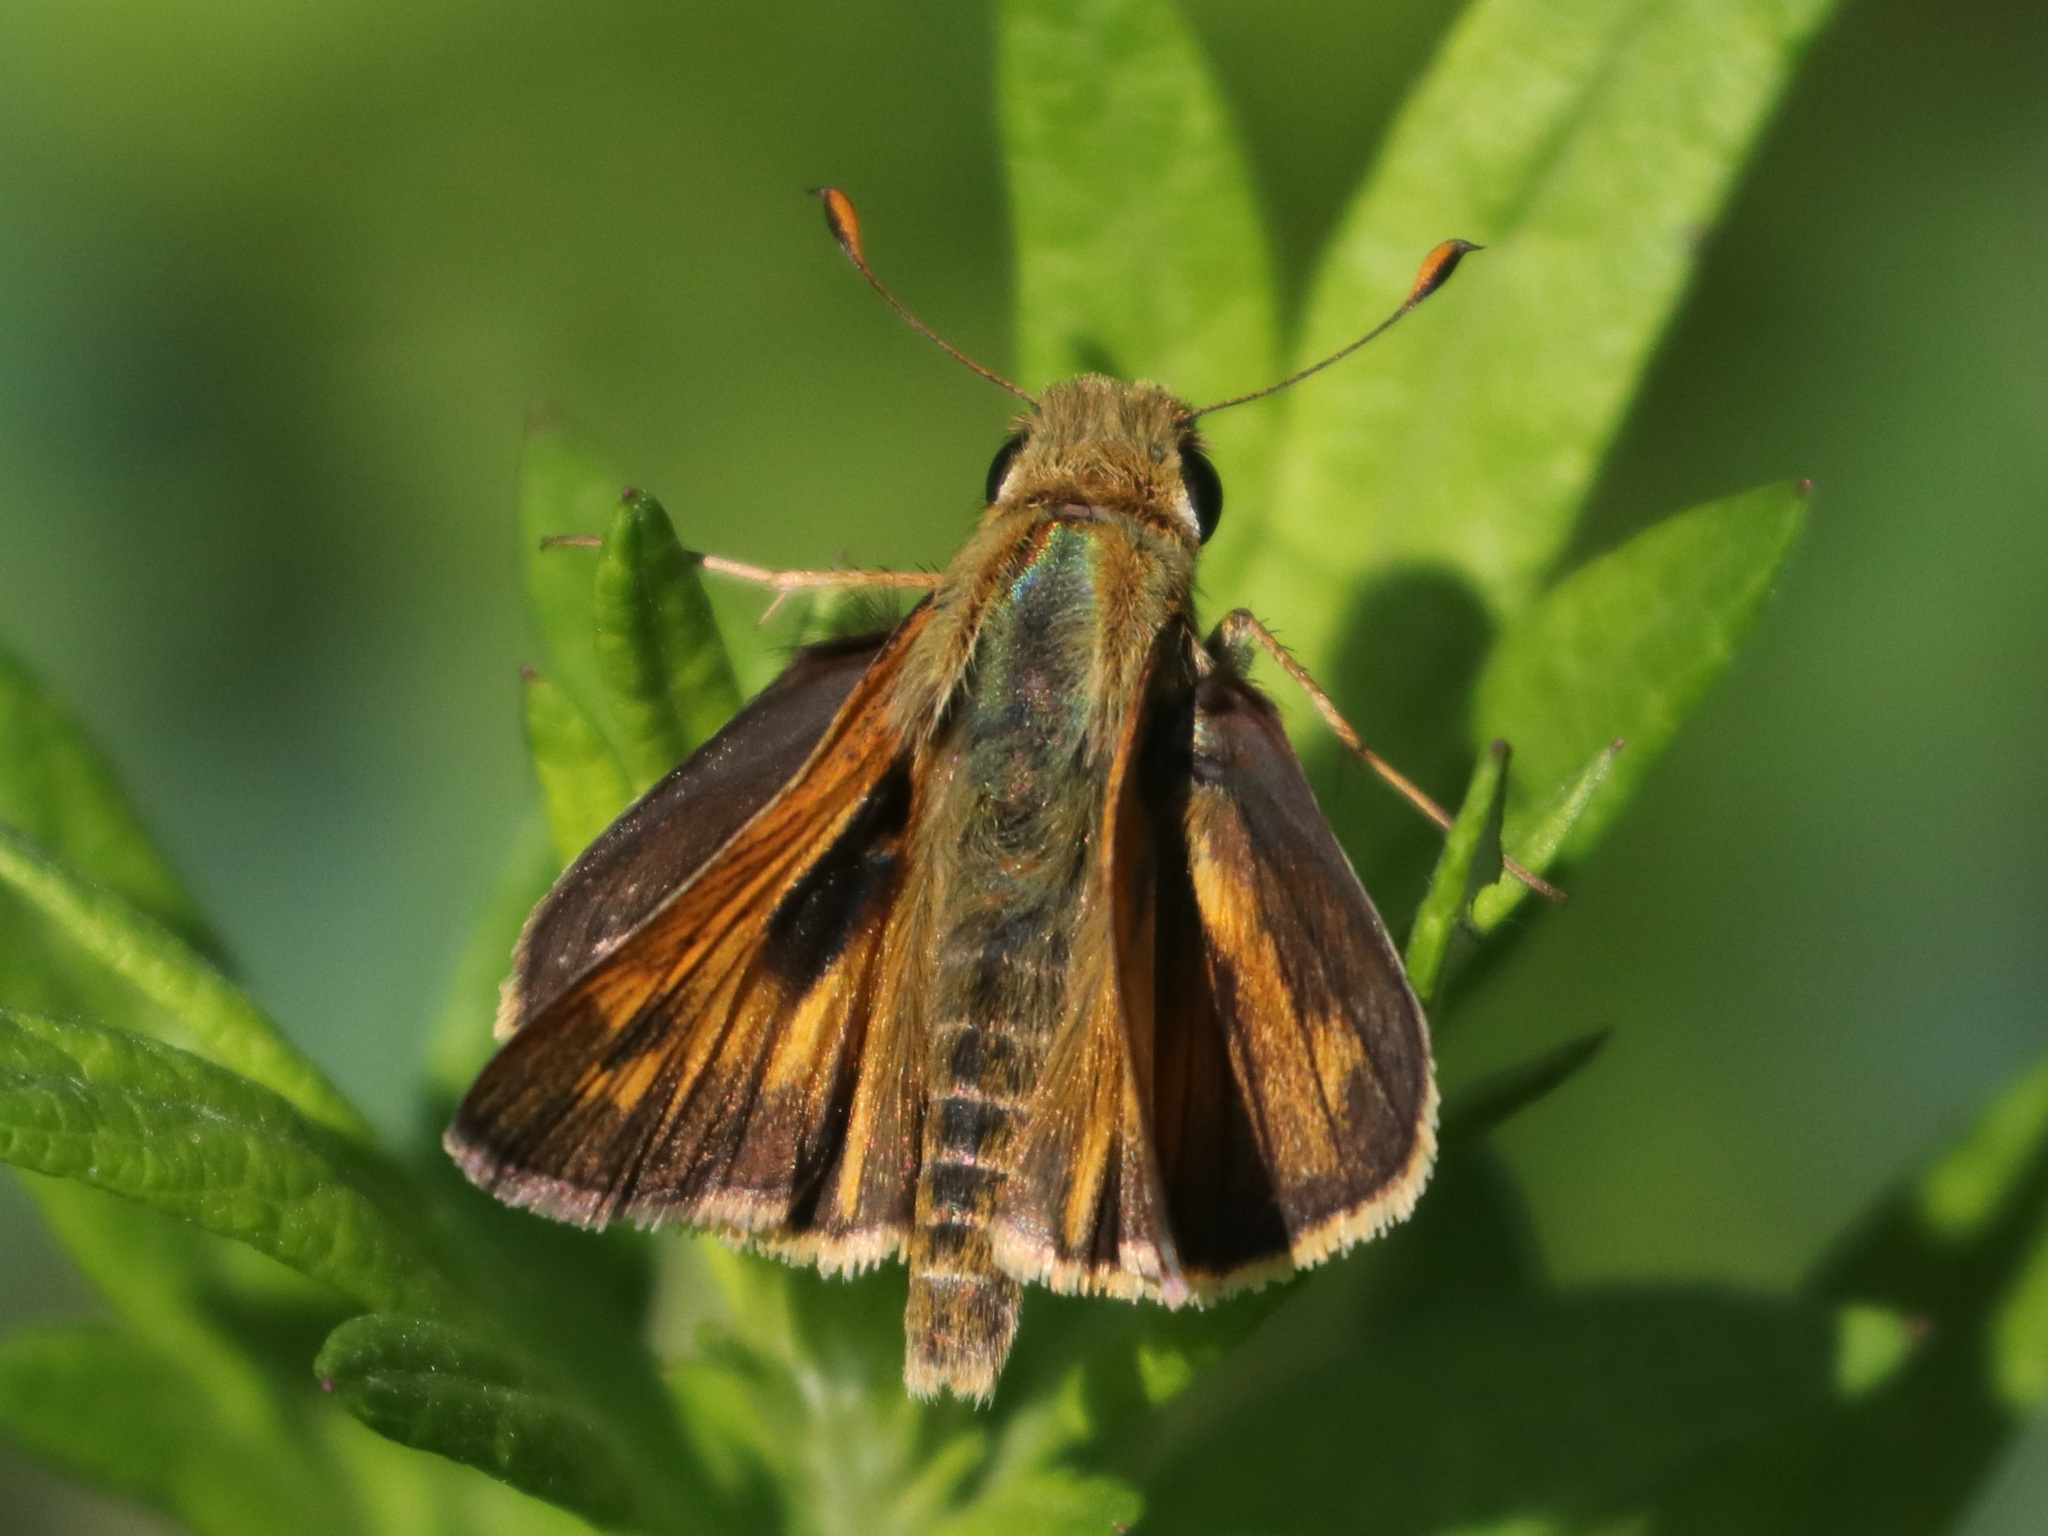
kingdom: Animalia
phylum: Arthropoda
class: Insecta
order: Lepidoptera
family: Hesperiidae
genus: Atalopedes
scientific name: Atalopedes
